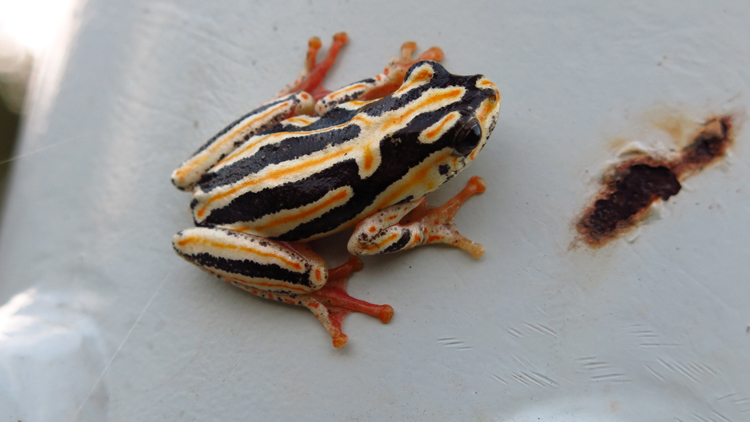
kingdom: Animalia
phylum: Chordata
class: Amphibia
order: Anura
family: Hyperoliidae
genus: Hyperolius
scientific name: Hyperolius marmoratus
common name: Painted reed frog
